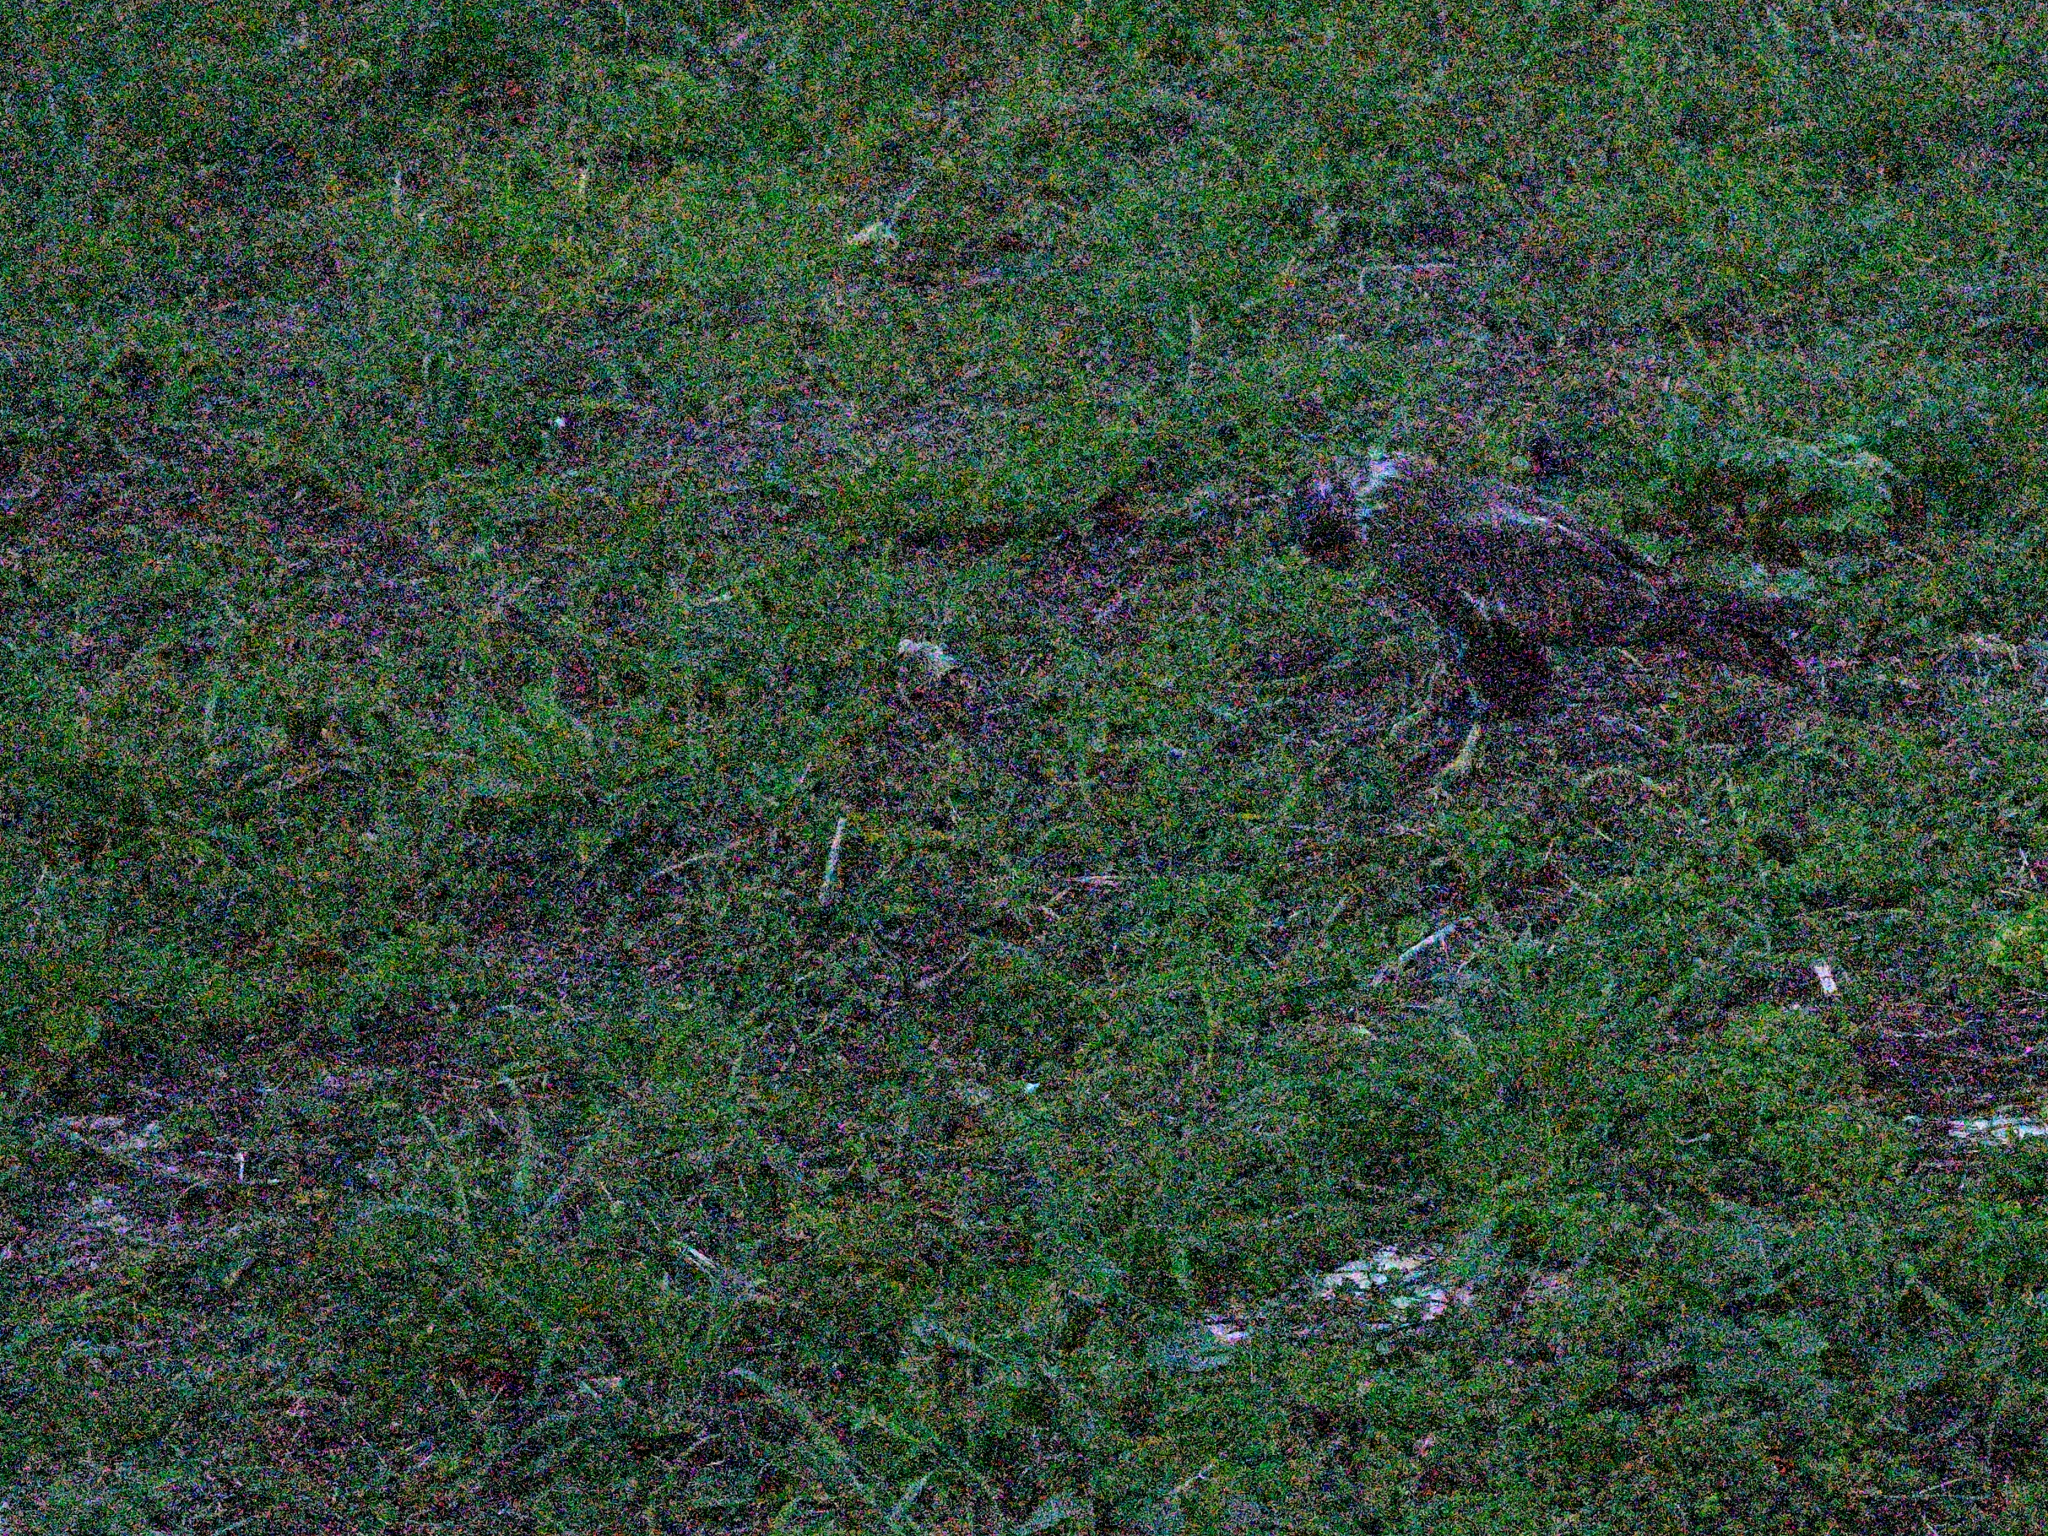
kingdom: Animalia
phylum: Chordata
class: Aves
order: Accipitriformes
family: Accipitridae
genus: Buteo
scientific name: Buteo buteo
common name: Common buzzard
